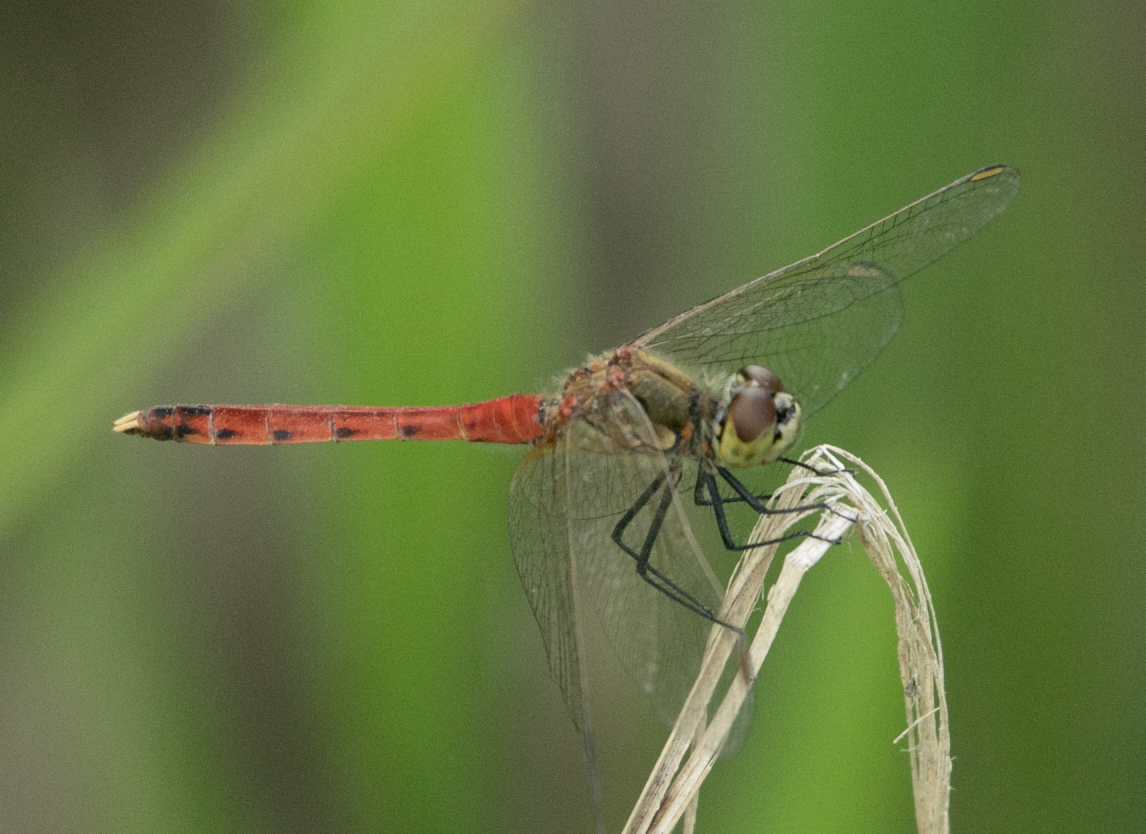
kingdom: Animalia
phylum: Arthropoda
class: Insecta
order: Odonata
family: Libellulidae
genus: Sympetrum
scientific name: Sympetrum depressiusculum
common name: Spotted darter
